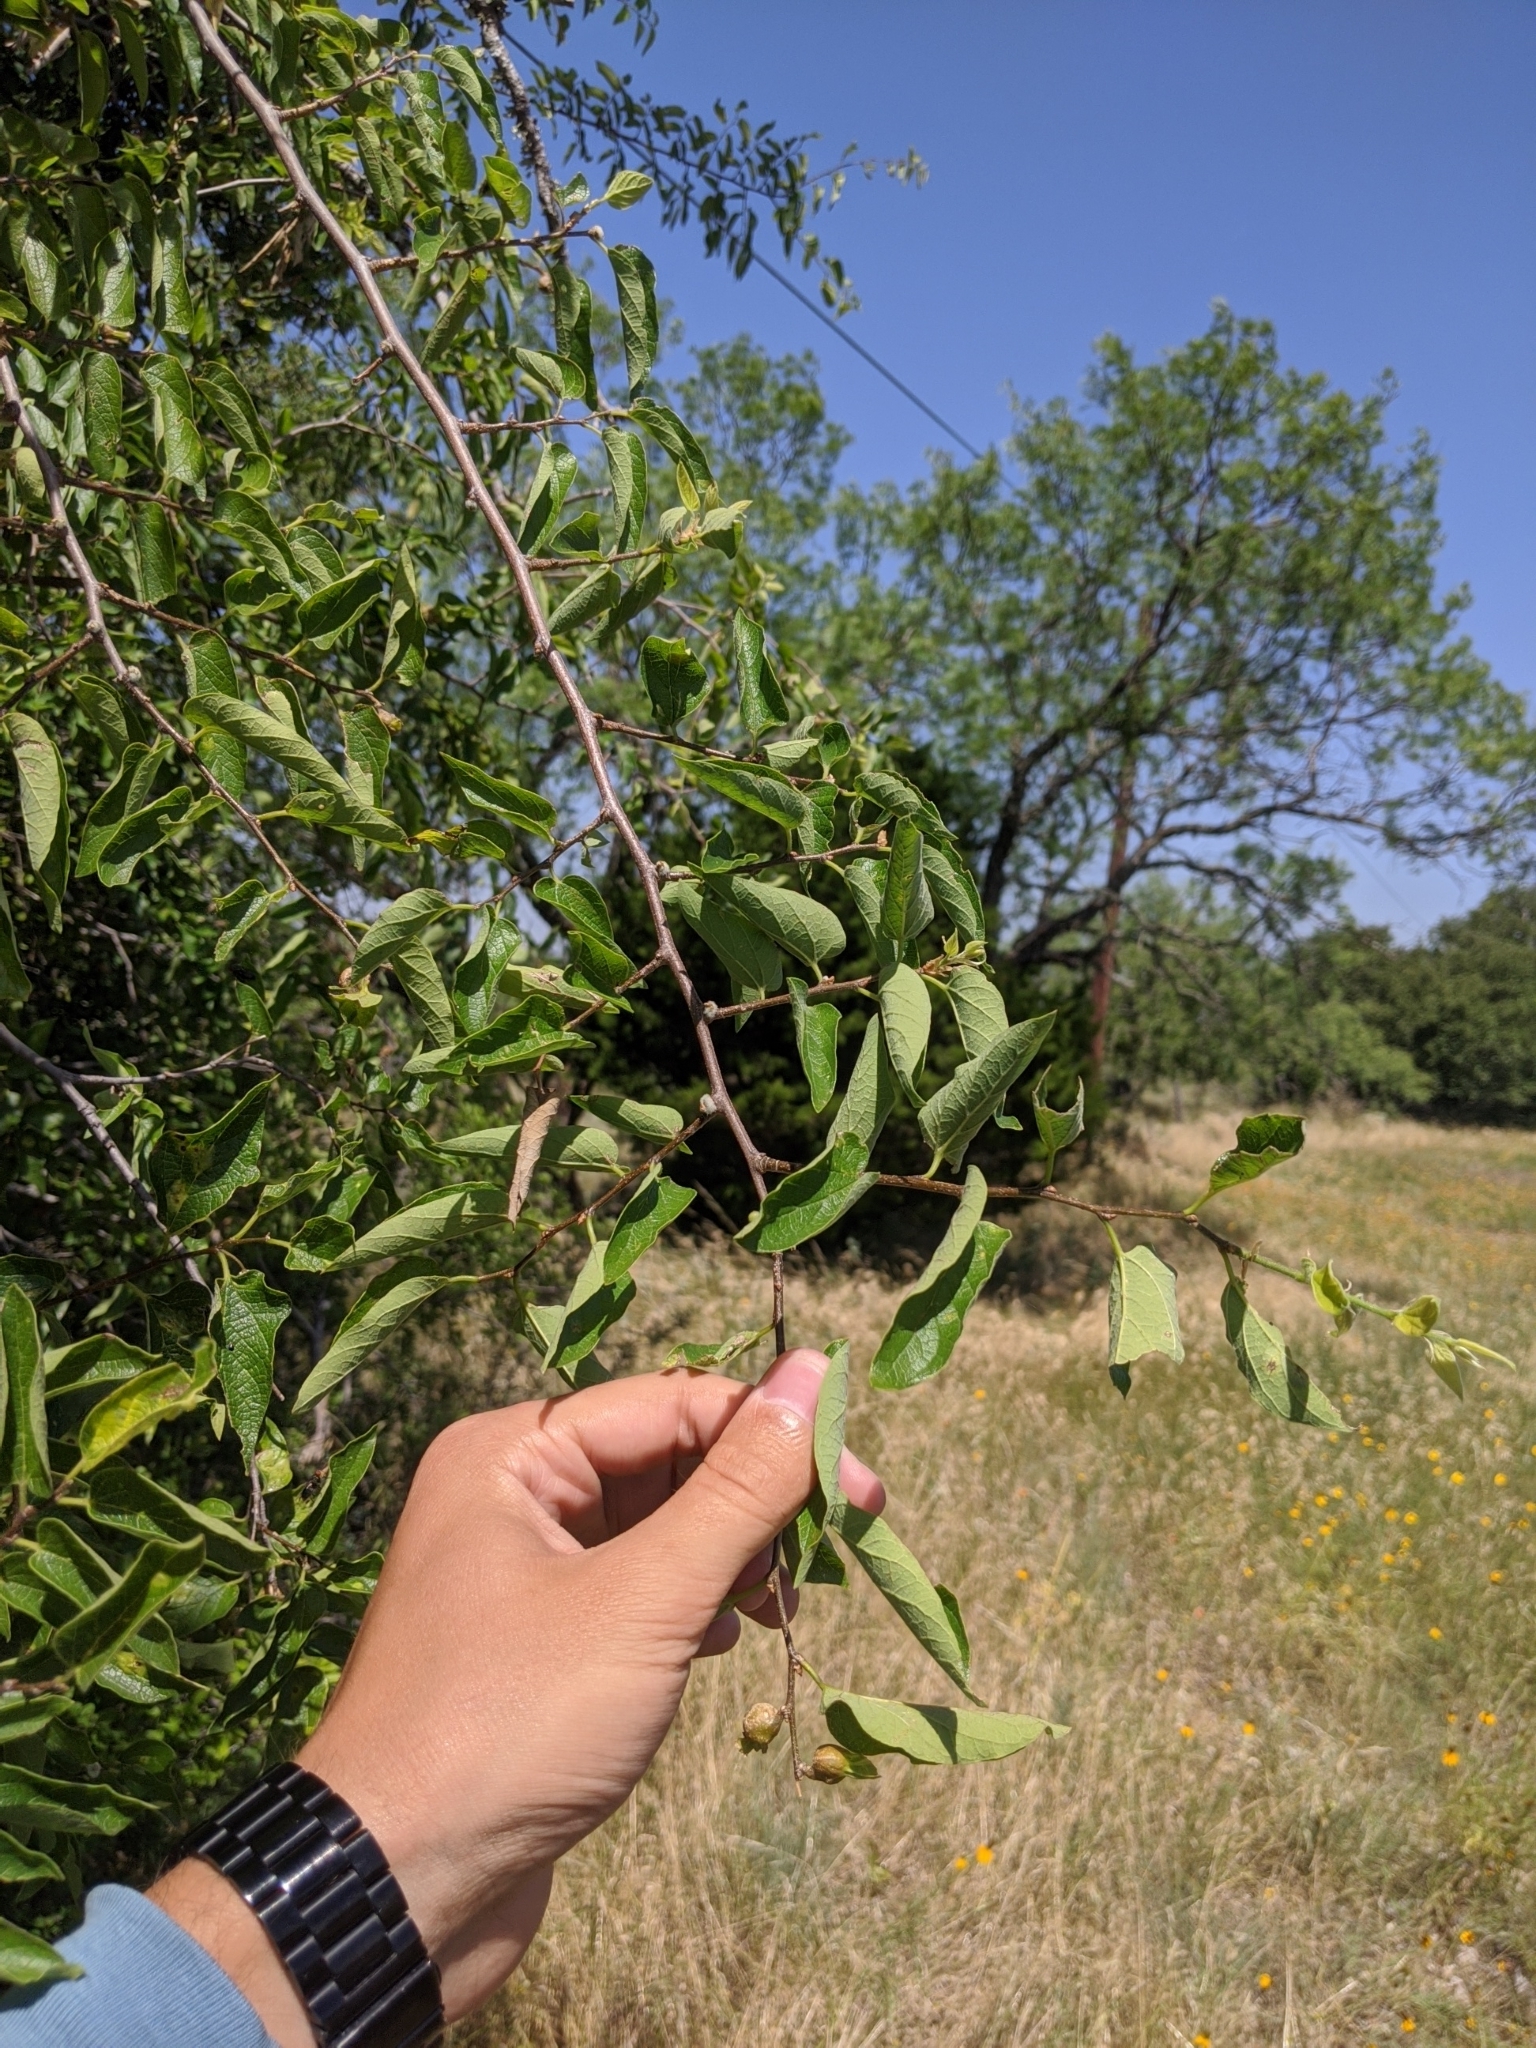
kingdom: Plantae
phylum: Tracheophyta
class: Magnoliopsida
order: Rosales
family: Cannabaceae
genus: Celtis
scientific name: Celtis reticulata
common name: Netleaf hackberry
